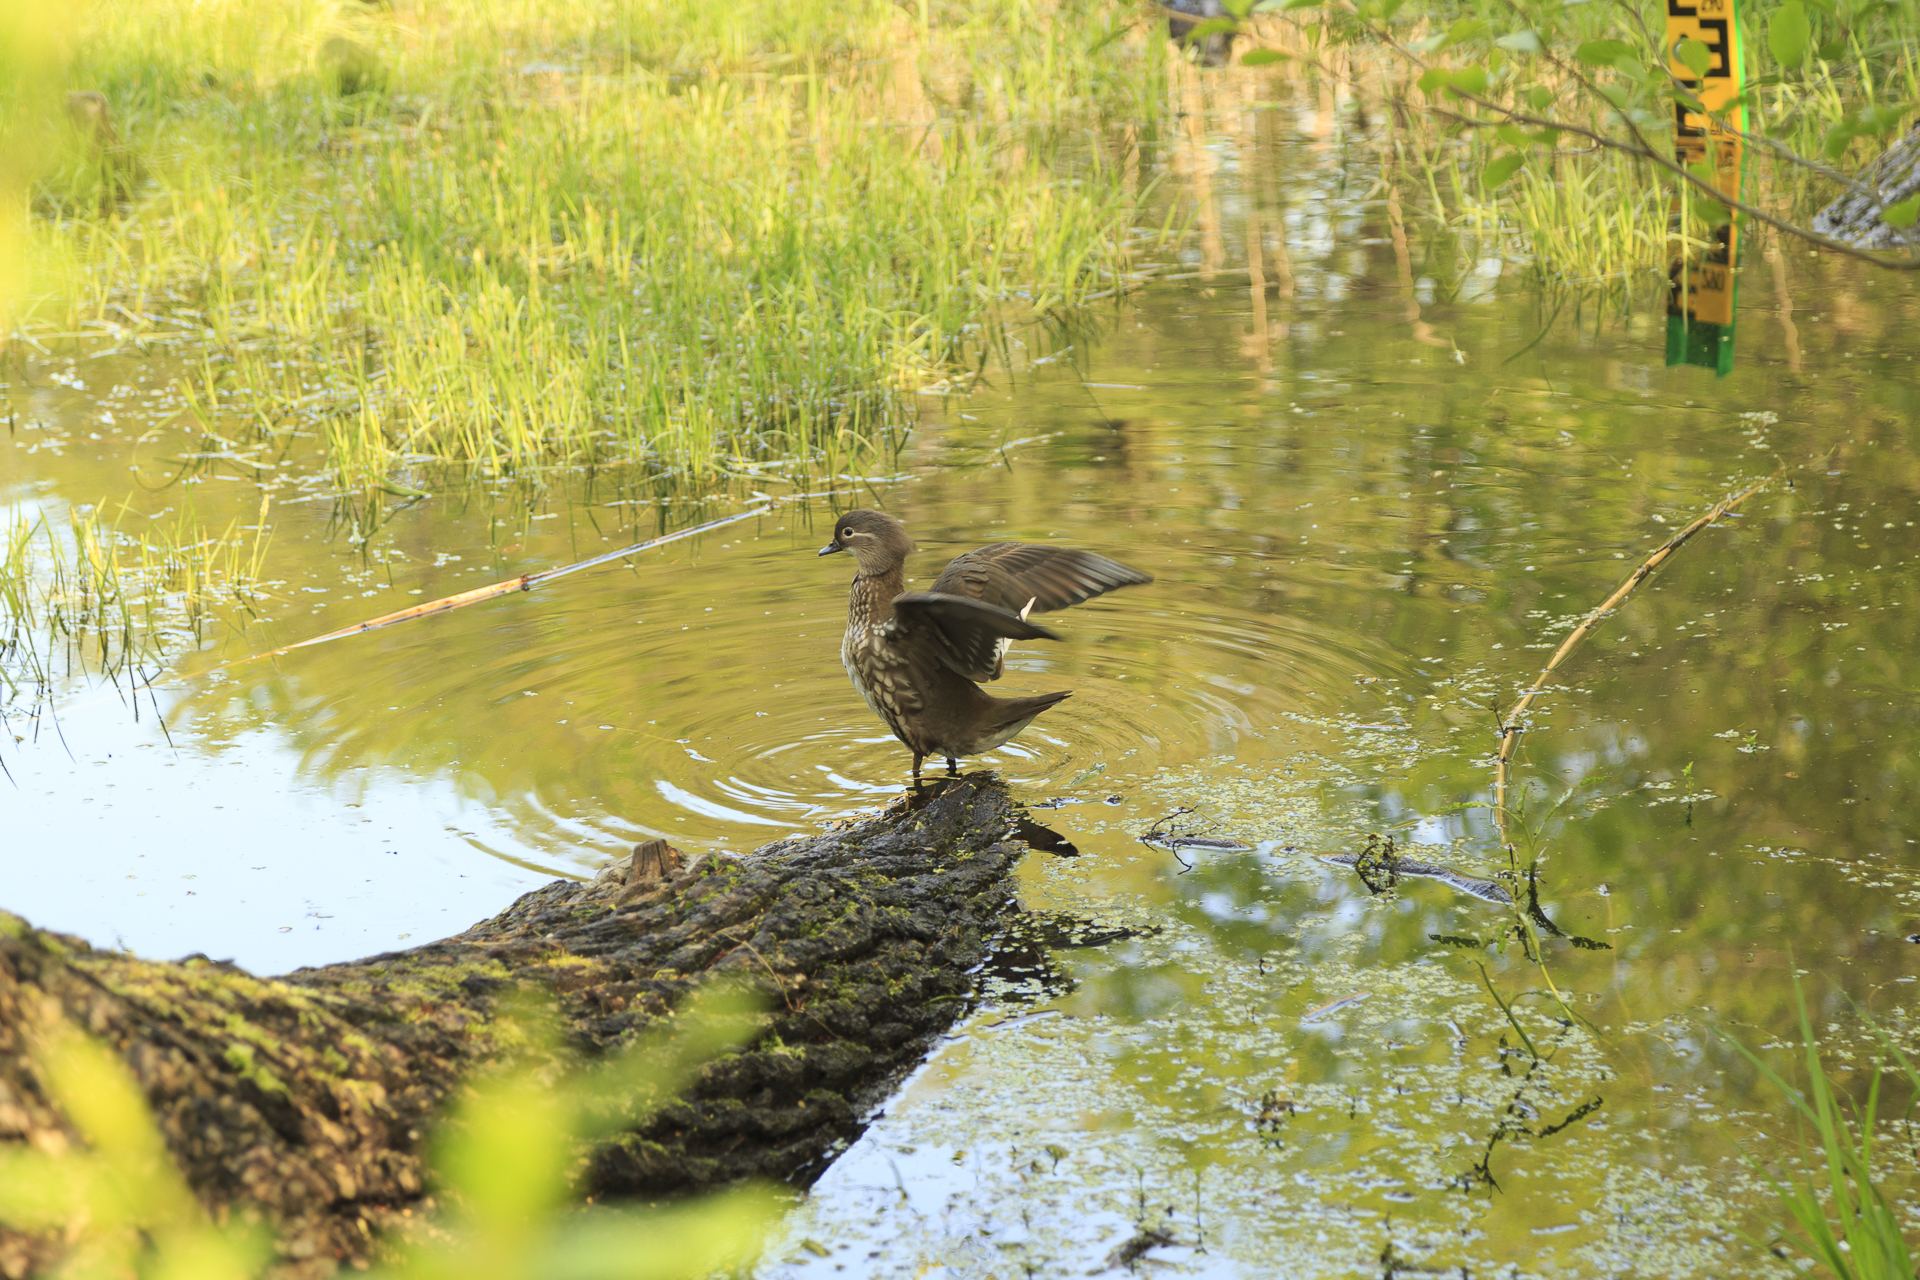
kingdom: Animalia
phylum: Chordata
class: Aves
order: Anseriformes
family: Anatidae
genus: Aix
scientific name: Aix galericulata
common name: Mandarin duck
